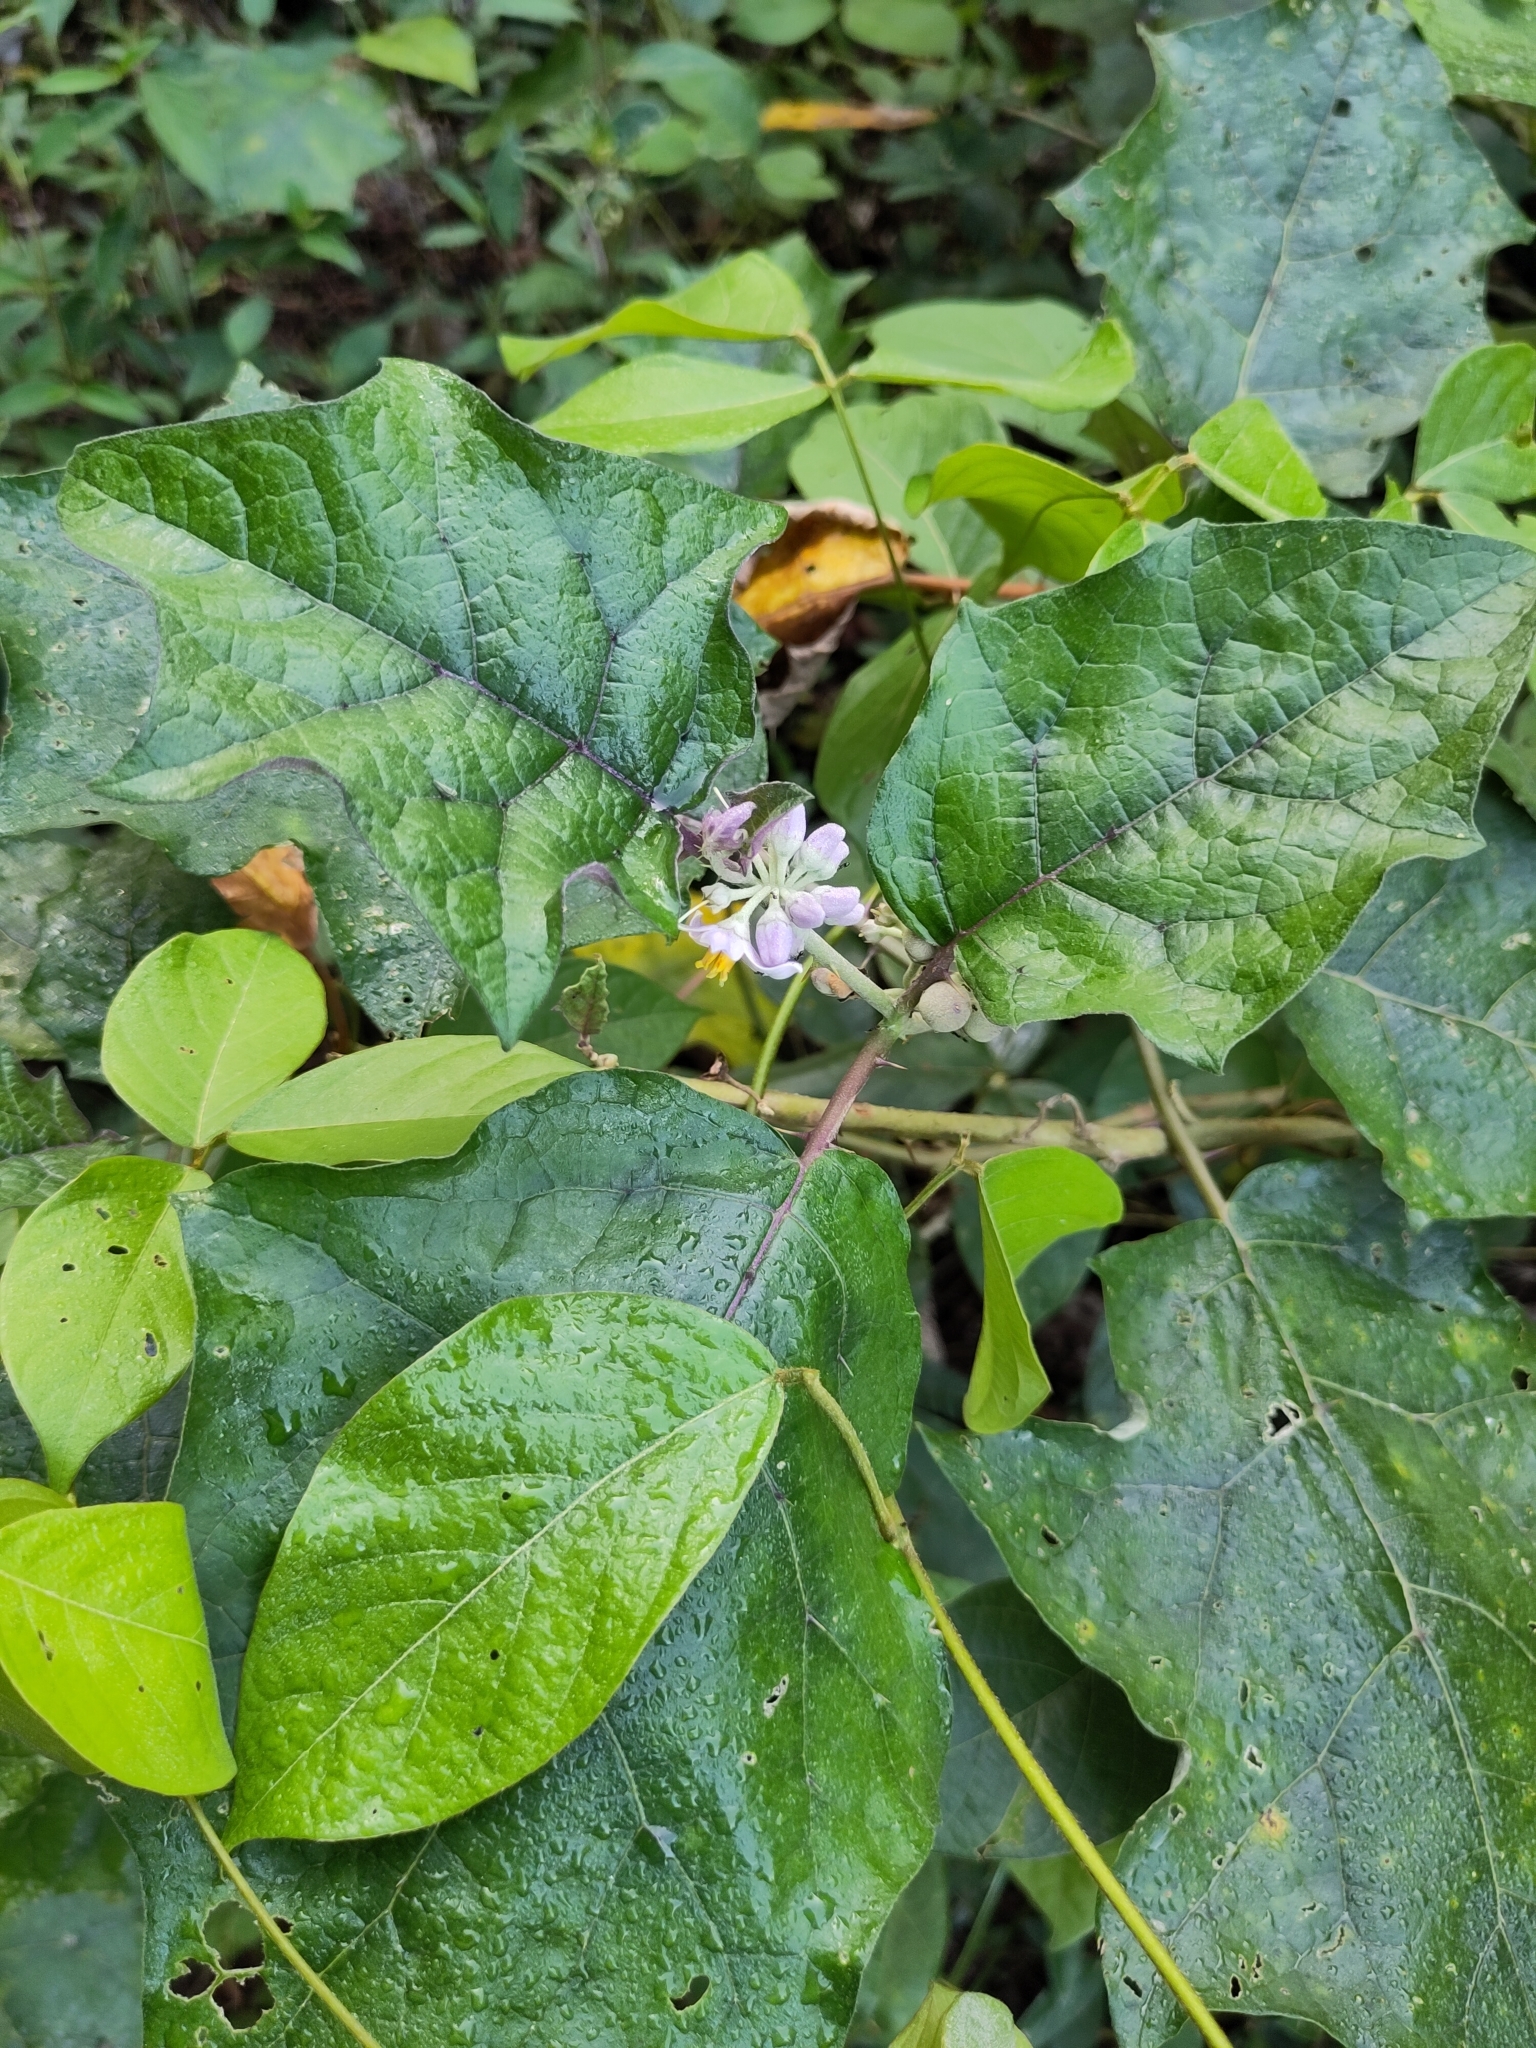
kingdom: Plantae
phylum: Tracheophyta
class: Magnoliopsida
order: Solanales
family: Solanaceae
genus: Solanum
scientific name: Solanum
